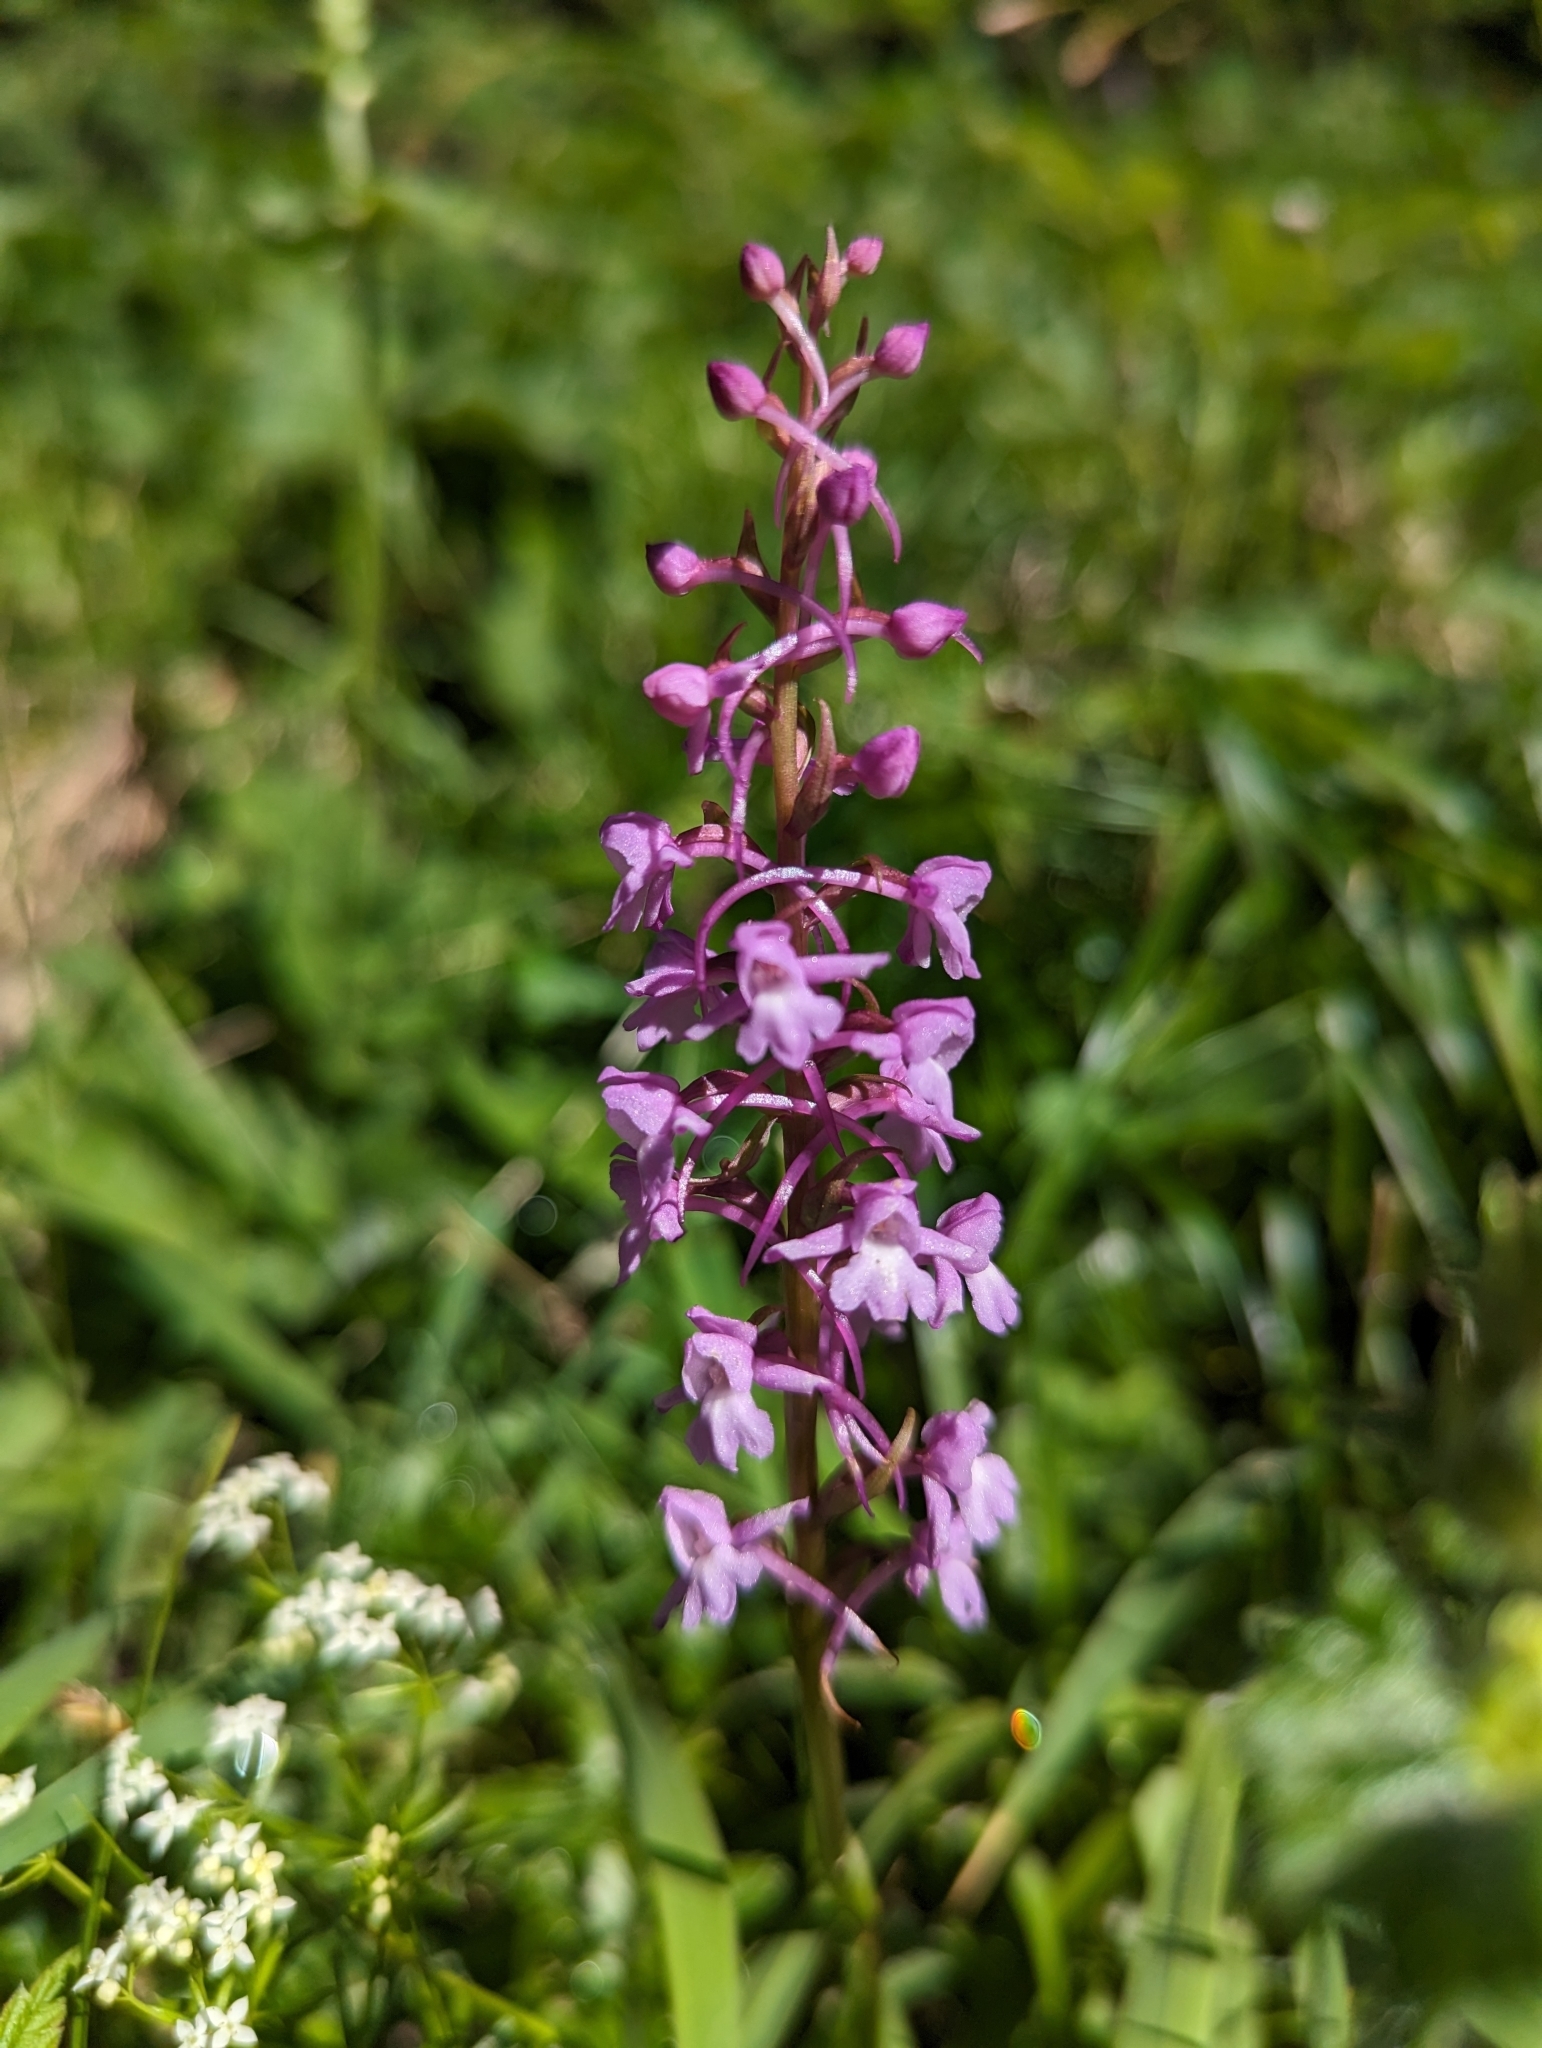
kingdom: Plantae
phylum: Tracheophyta
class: Liliopsida
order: Asparagales
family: Orchidaceae
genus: Gymnadenia
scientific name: Gymnadenia conopsea
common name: Fragrant orchid
